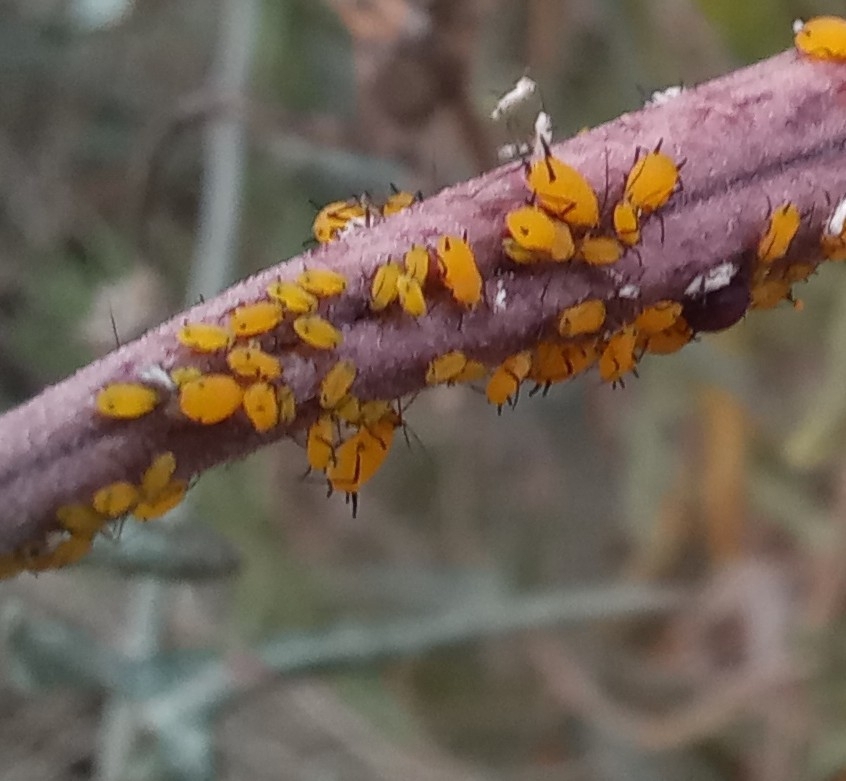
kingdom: Animalia
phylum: Arthropoda
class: Insecta
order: Hemiptera
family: Aphididae
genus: Aphis
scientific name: Aphis nerii
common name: Oleander aphid
